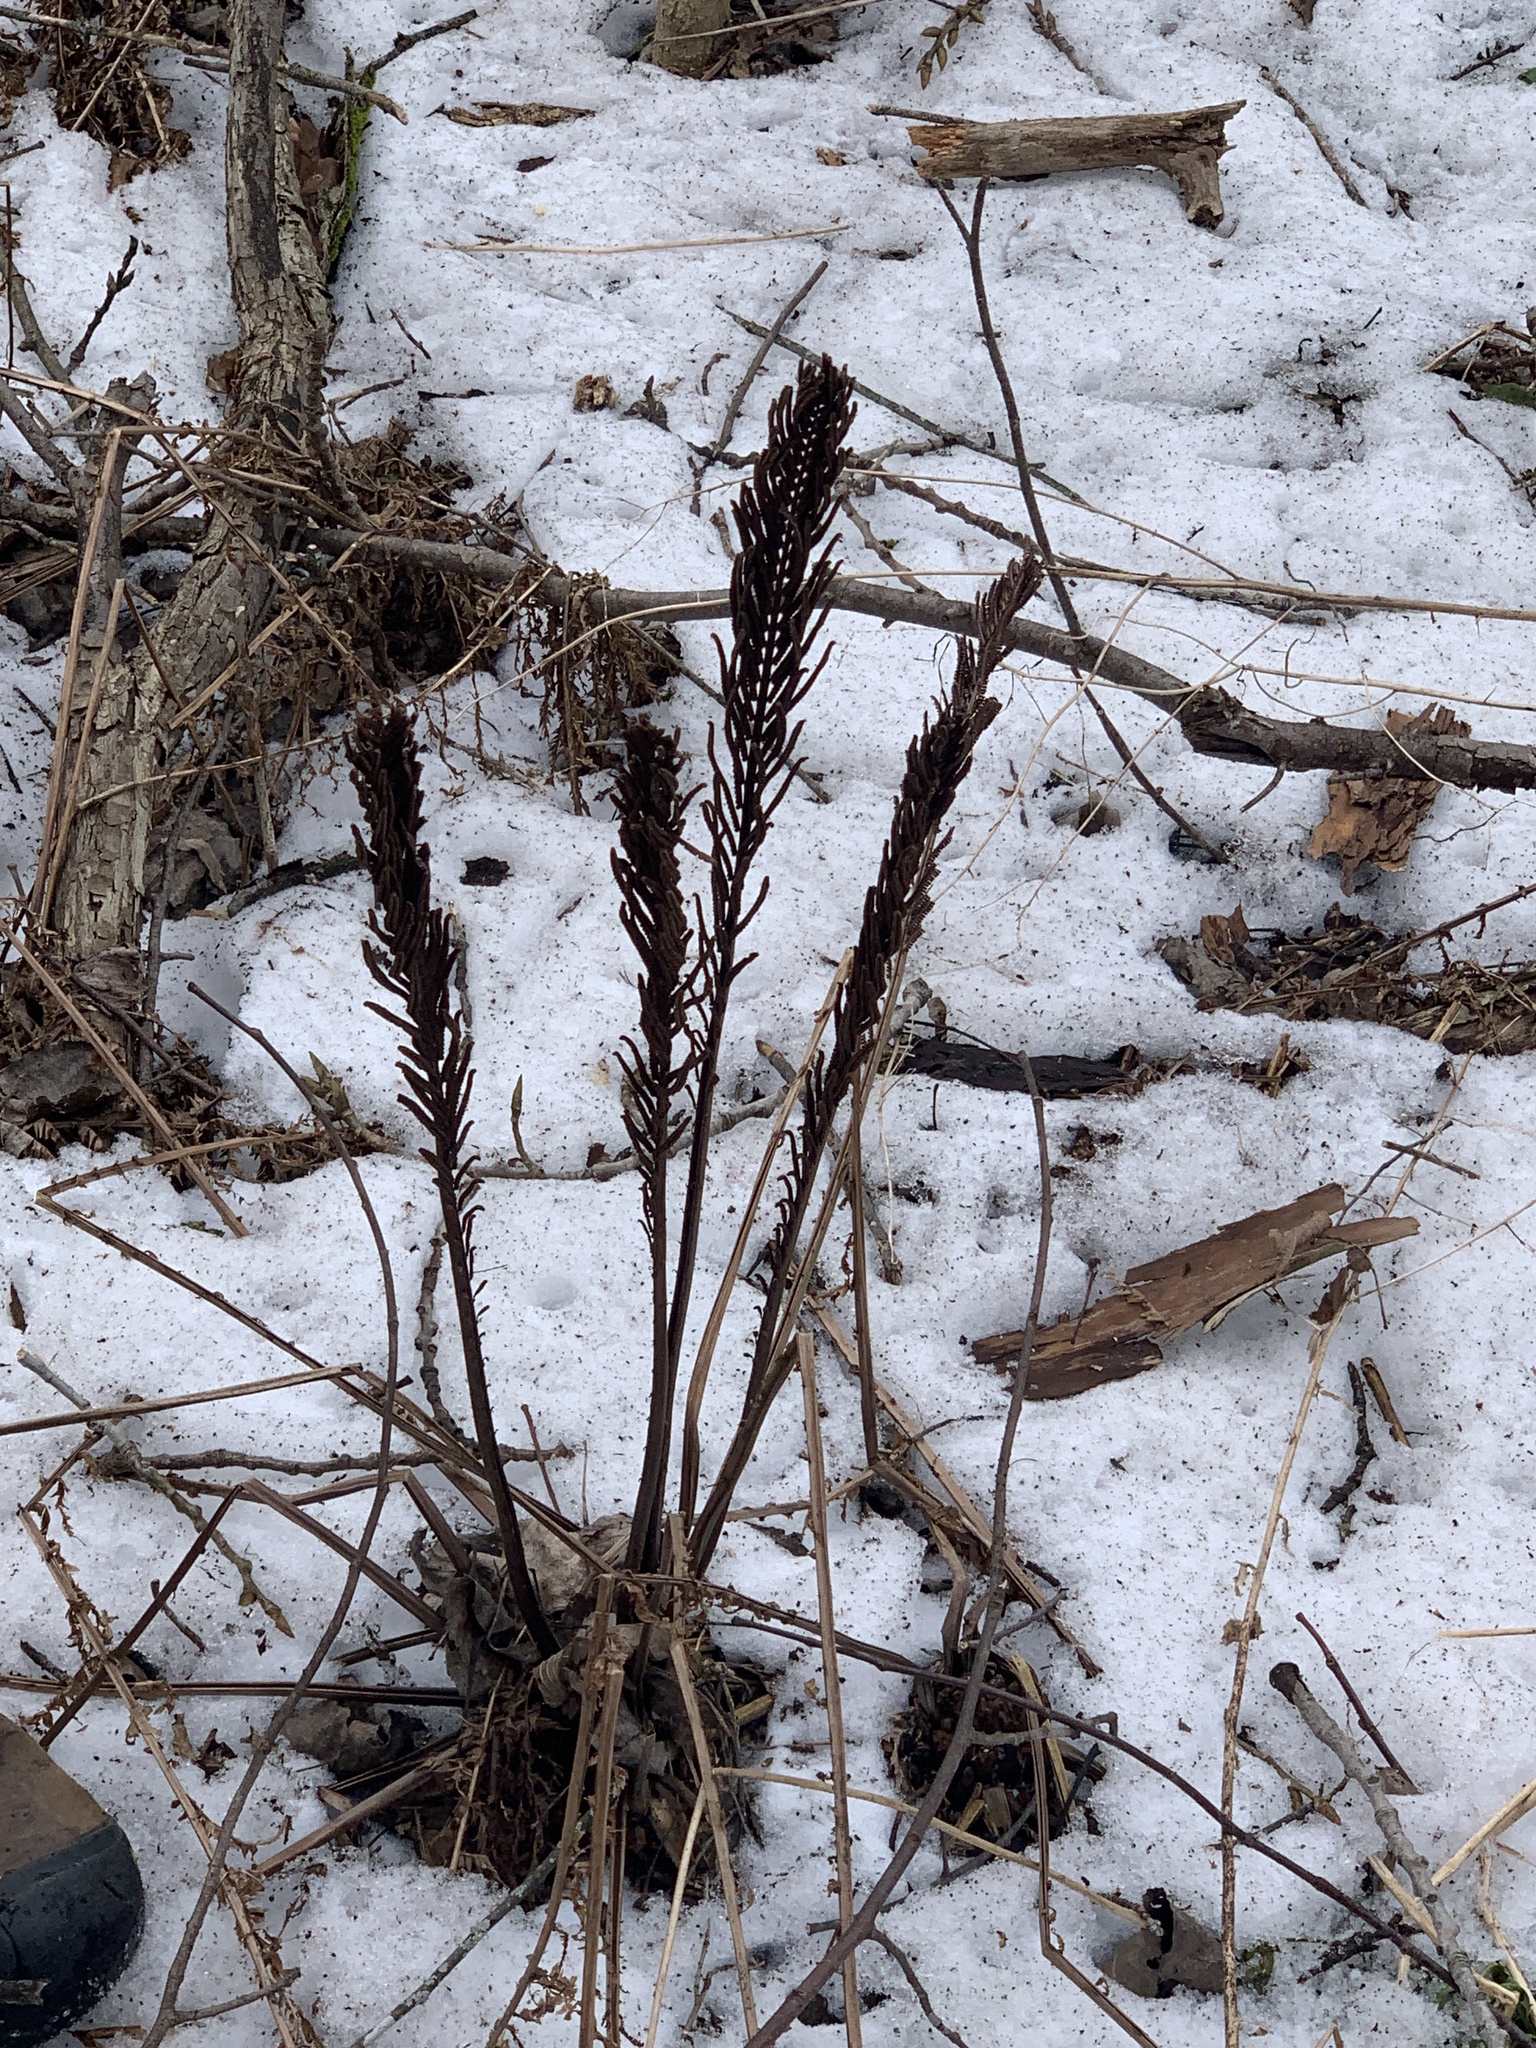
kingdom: Plantae
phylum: Tracheophyta
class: Polypodiopsida
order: Polypodiales
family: Onocleaceae
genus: Matteuccia
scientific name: Matteuccia struthiopteris
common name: Ostrich fern
